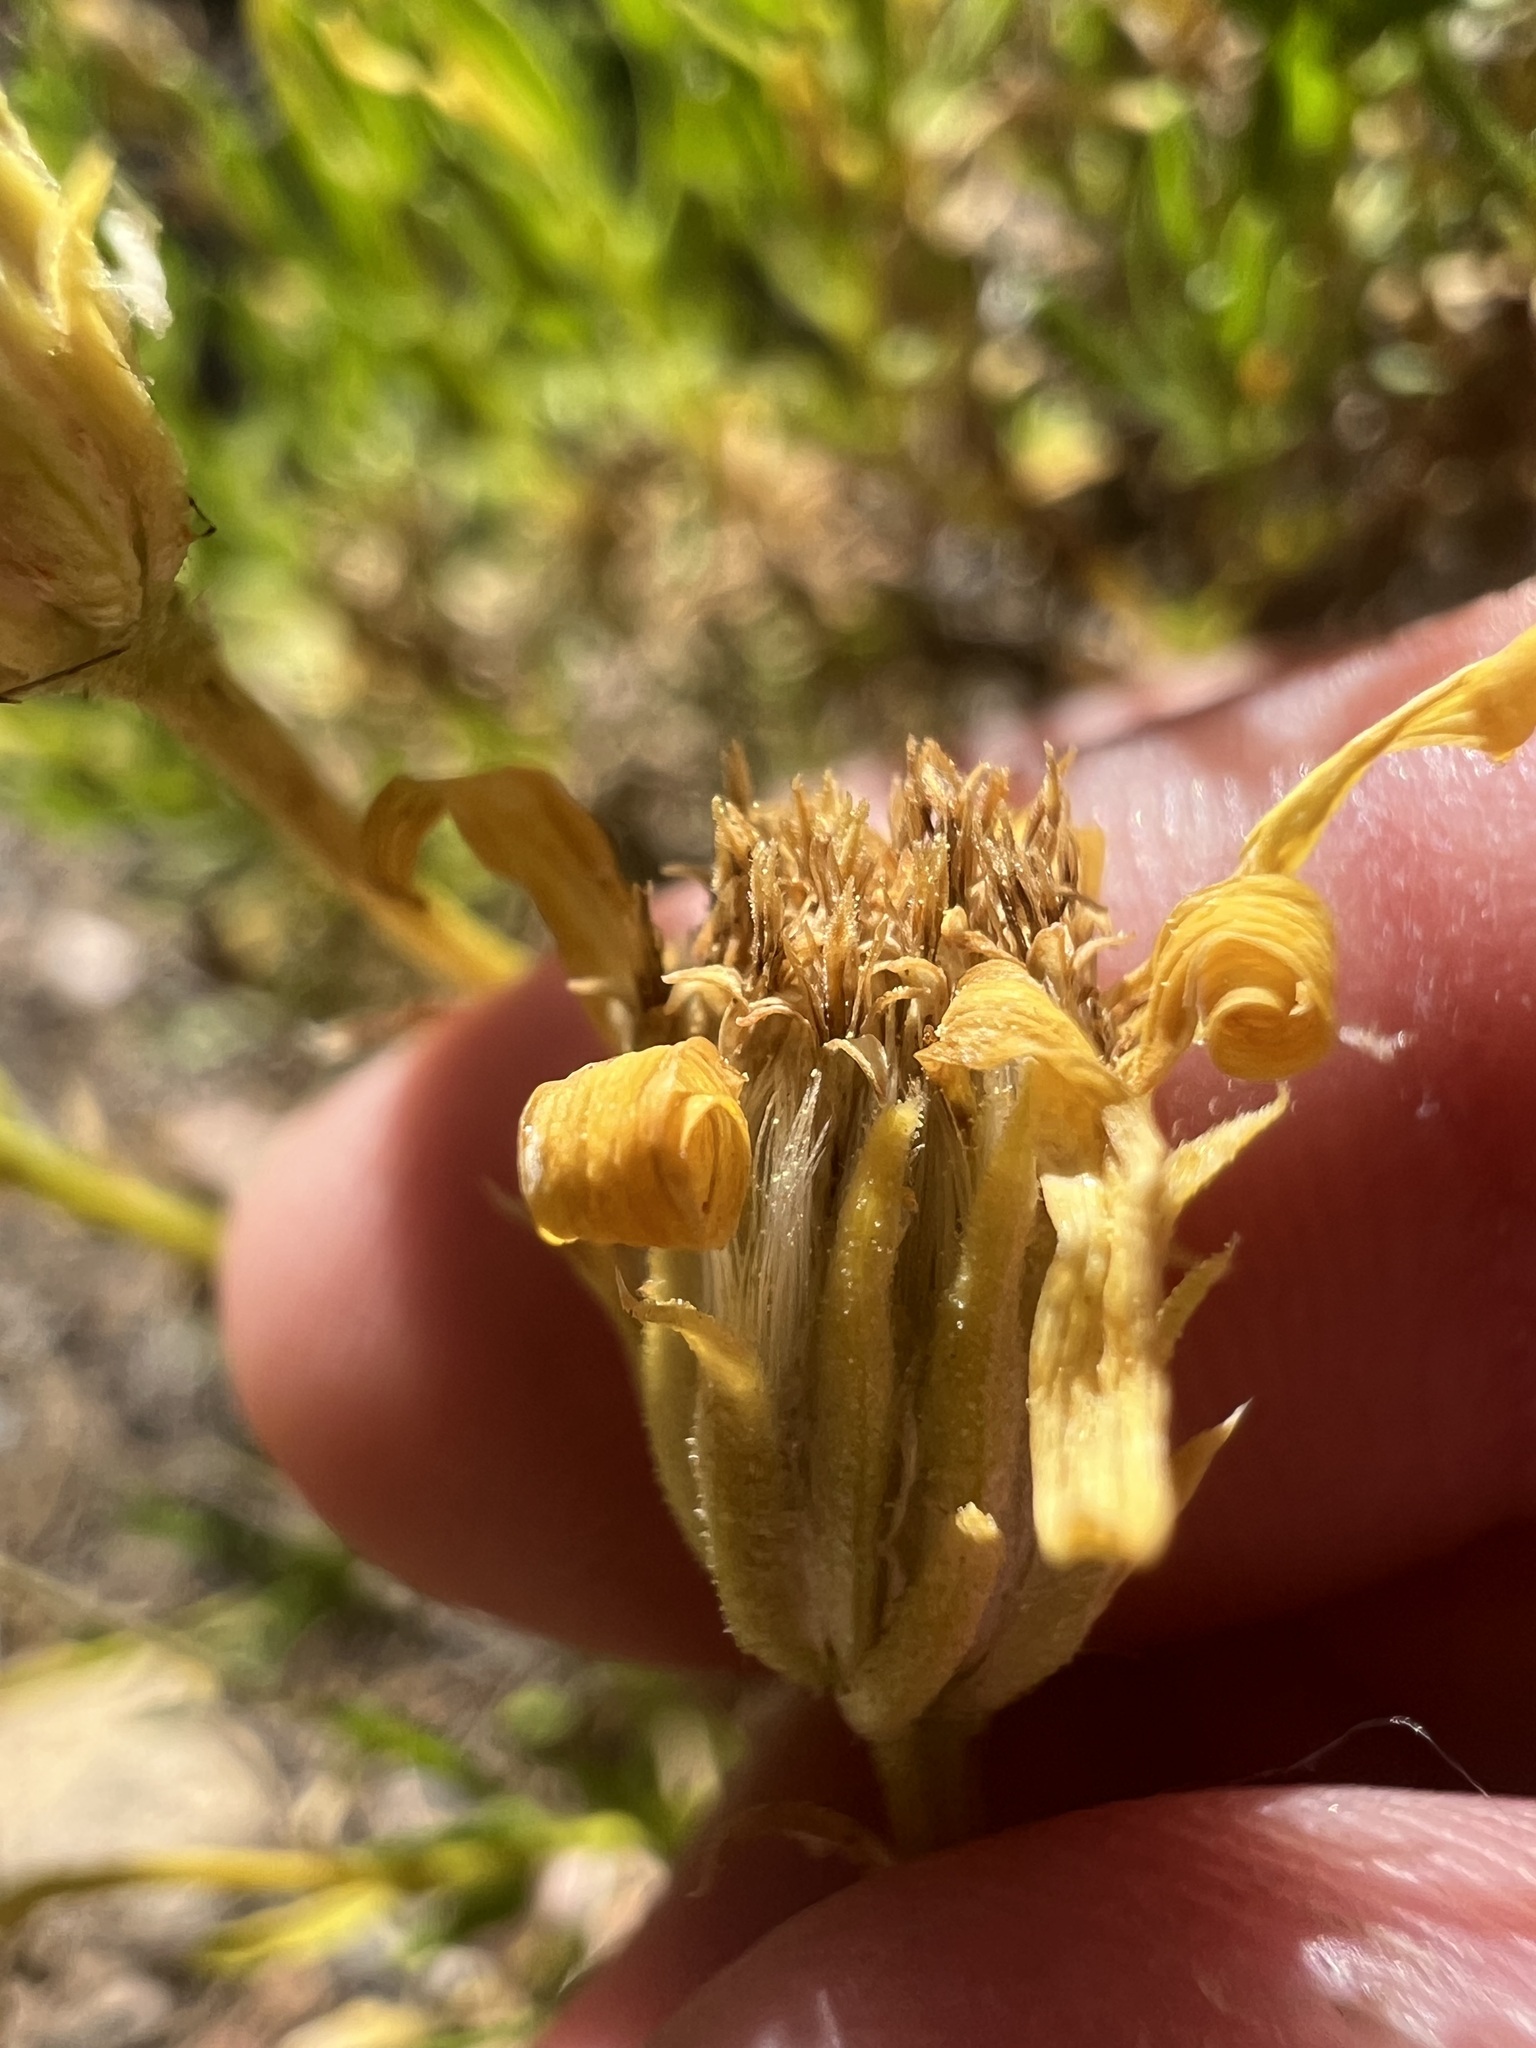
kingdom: Plantae
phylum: Tracheophyta
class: Magnoliopsida
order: Asterales
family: Asteraceae
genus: Ericameria
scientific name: Ericameria linearifolia
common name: Interior goldenbush
